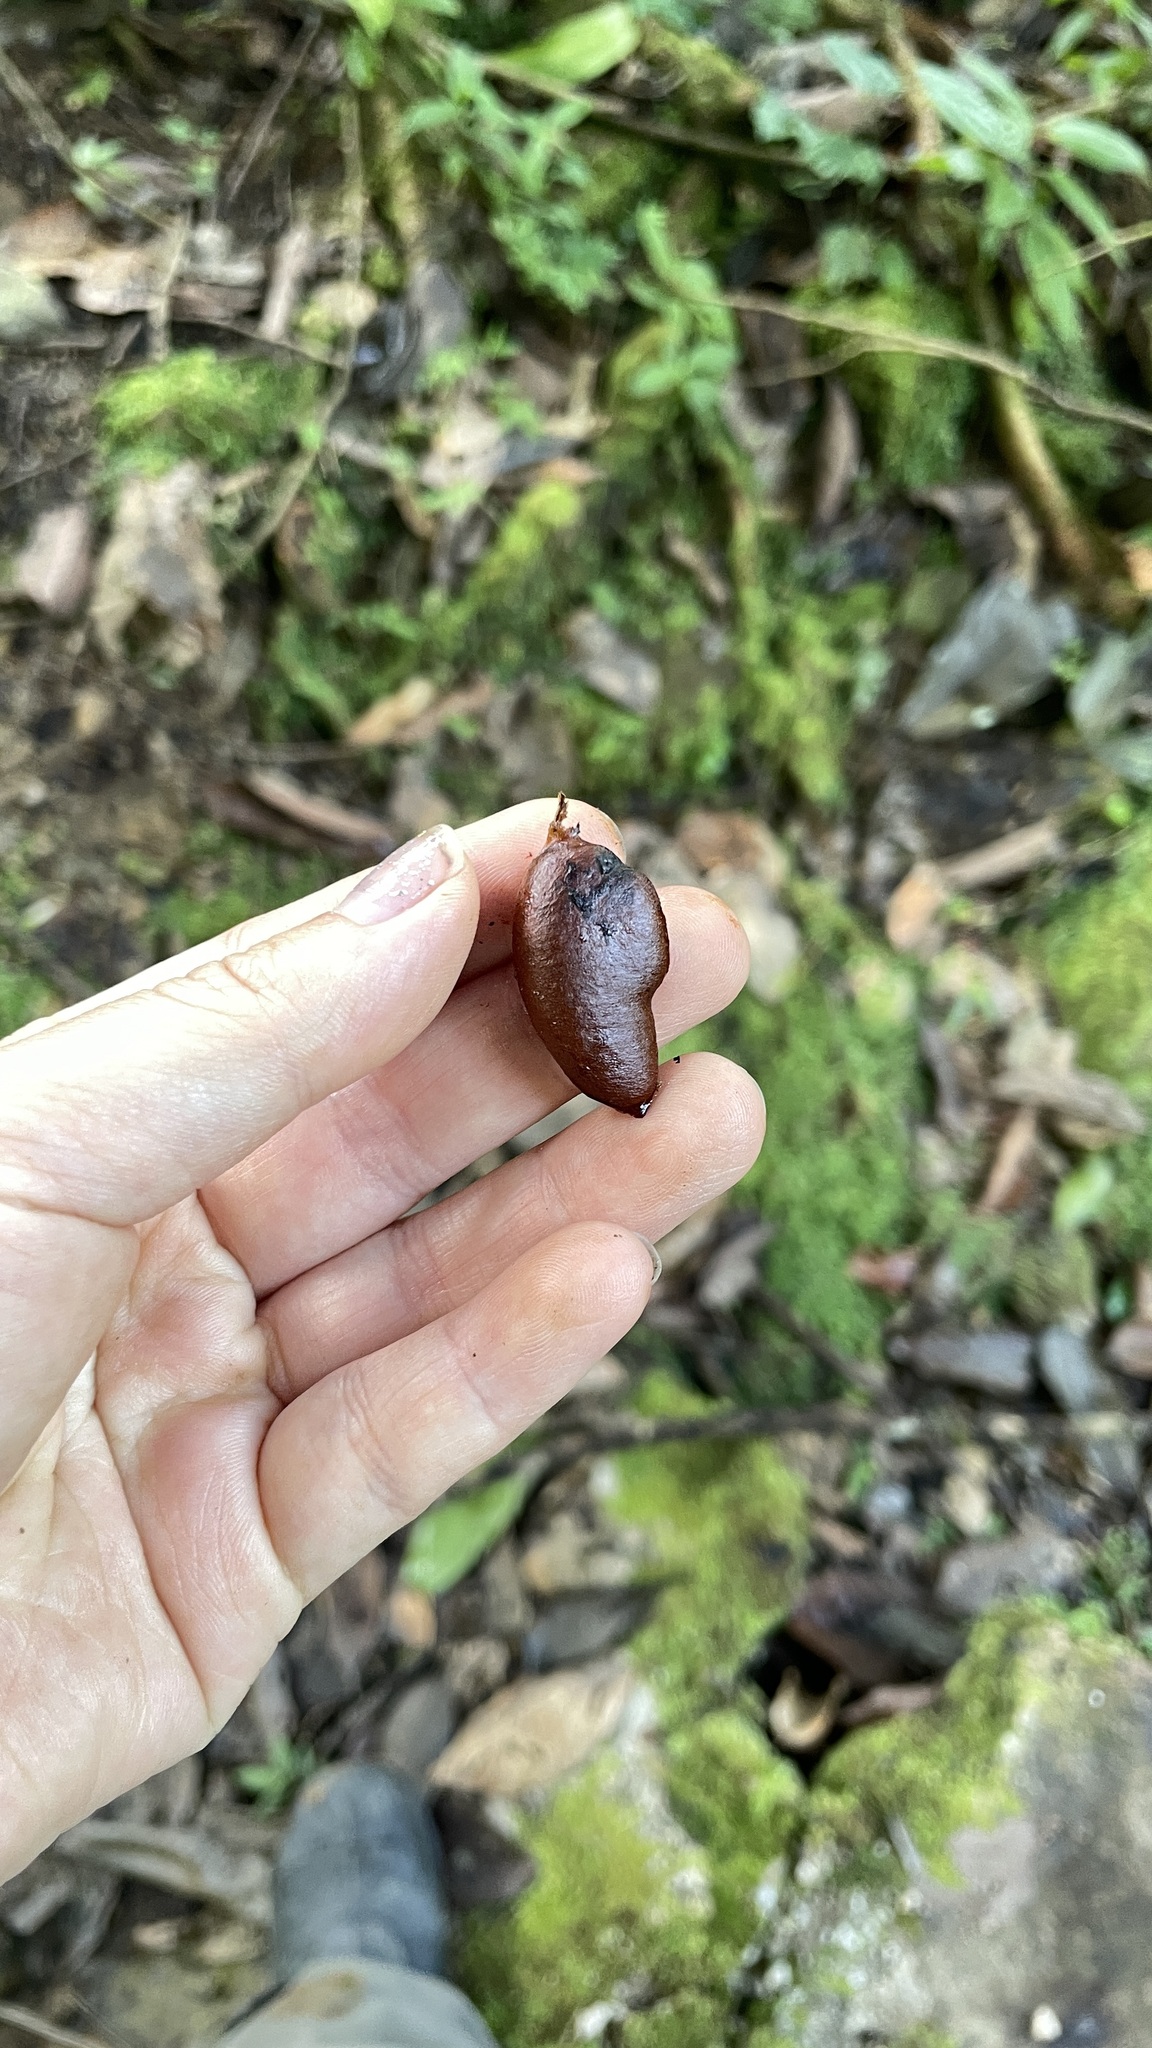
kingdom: Plantae
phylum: Tracheophyta
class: Magnoliopsida
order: Ericales
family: Ebenaceae
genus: Diospyros
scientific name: Diospyros nigra
